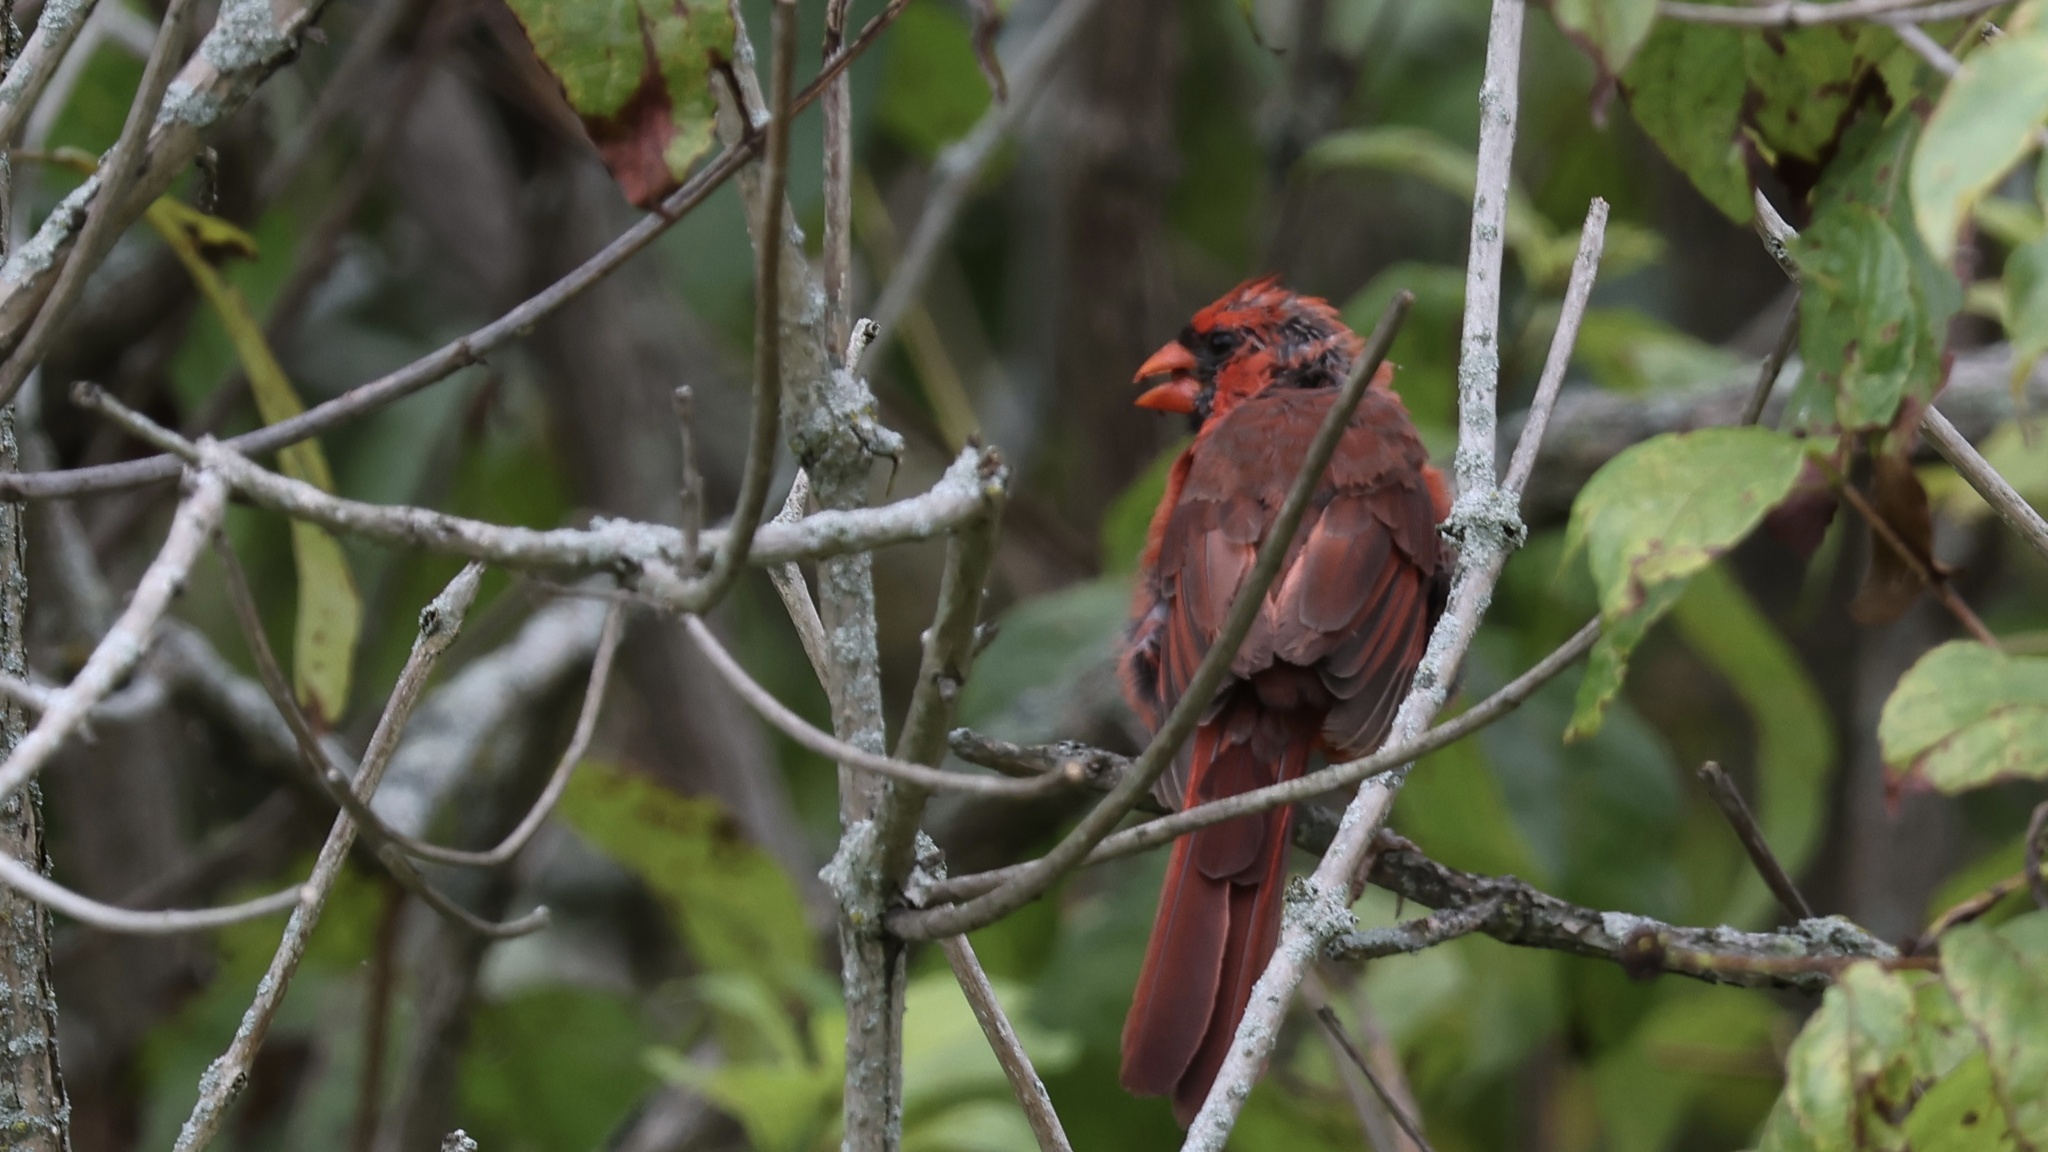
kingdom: Animalia
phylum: Chordata
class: Aves
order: Passeriformes
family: Cardinalidae
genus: Cardinalis
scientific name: Cardinalis cardinalis
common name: Northern cardinal
